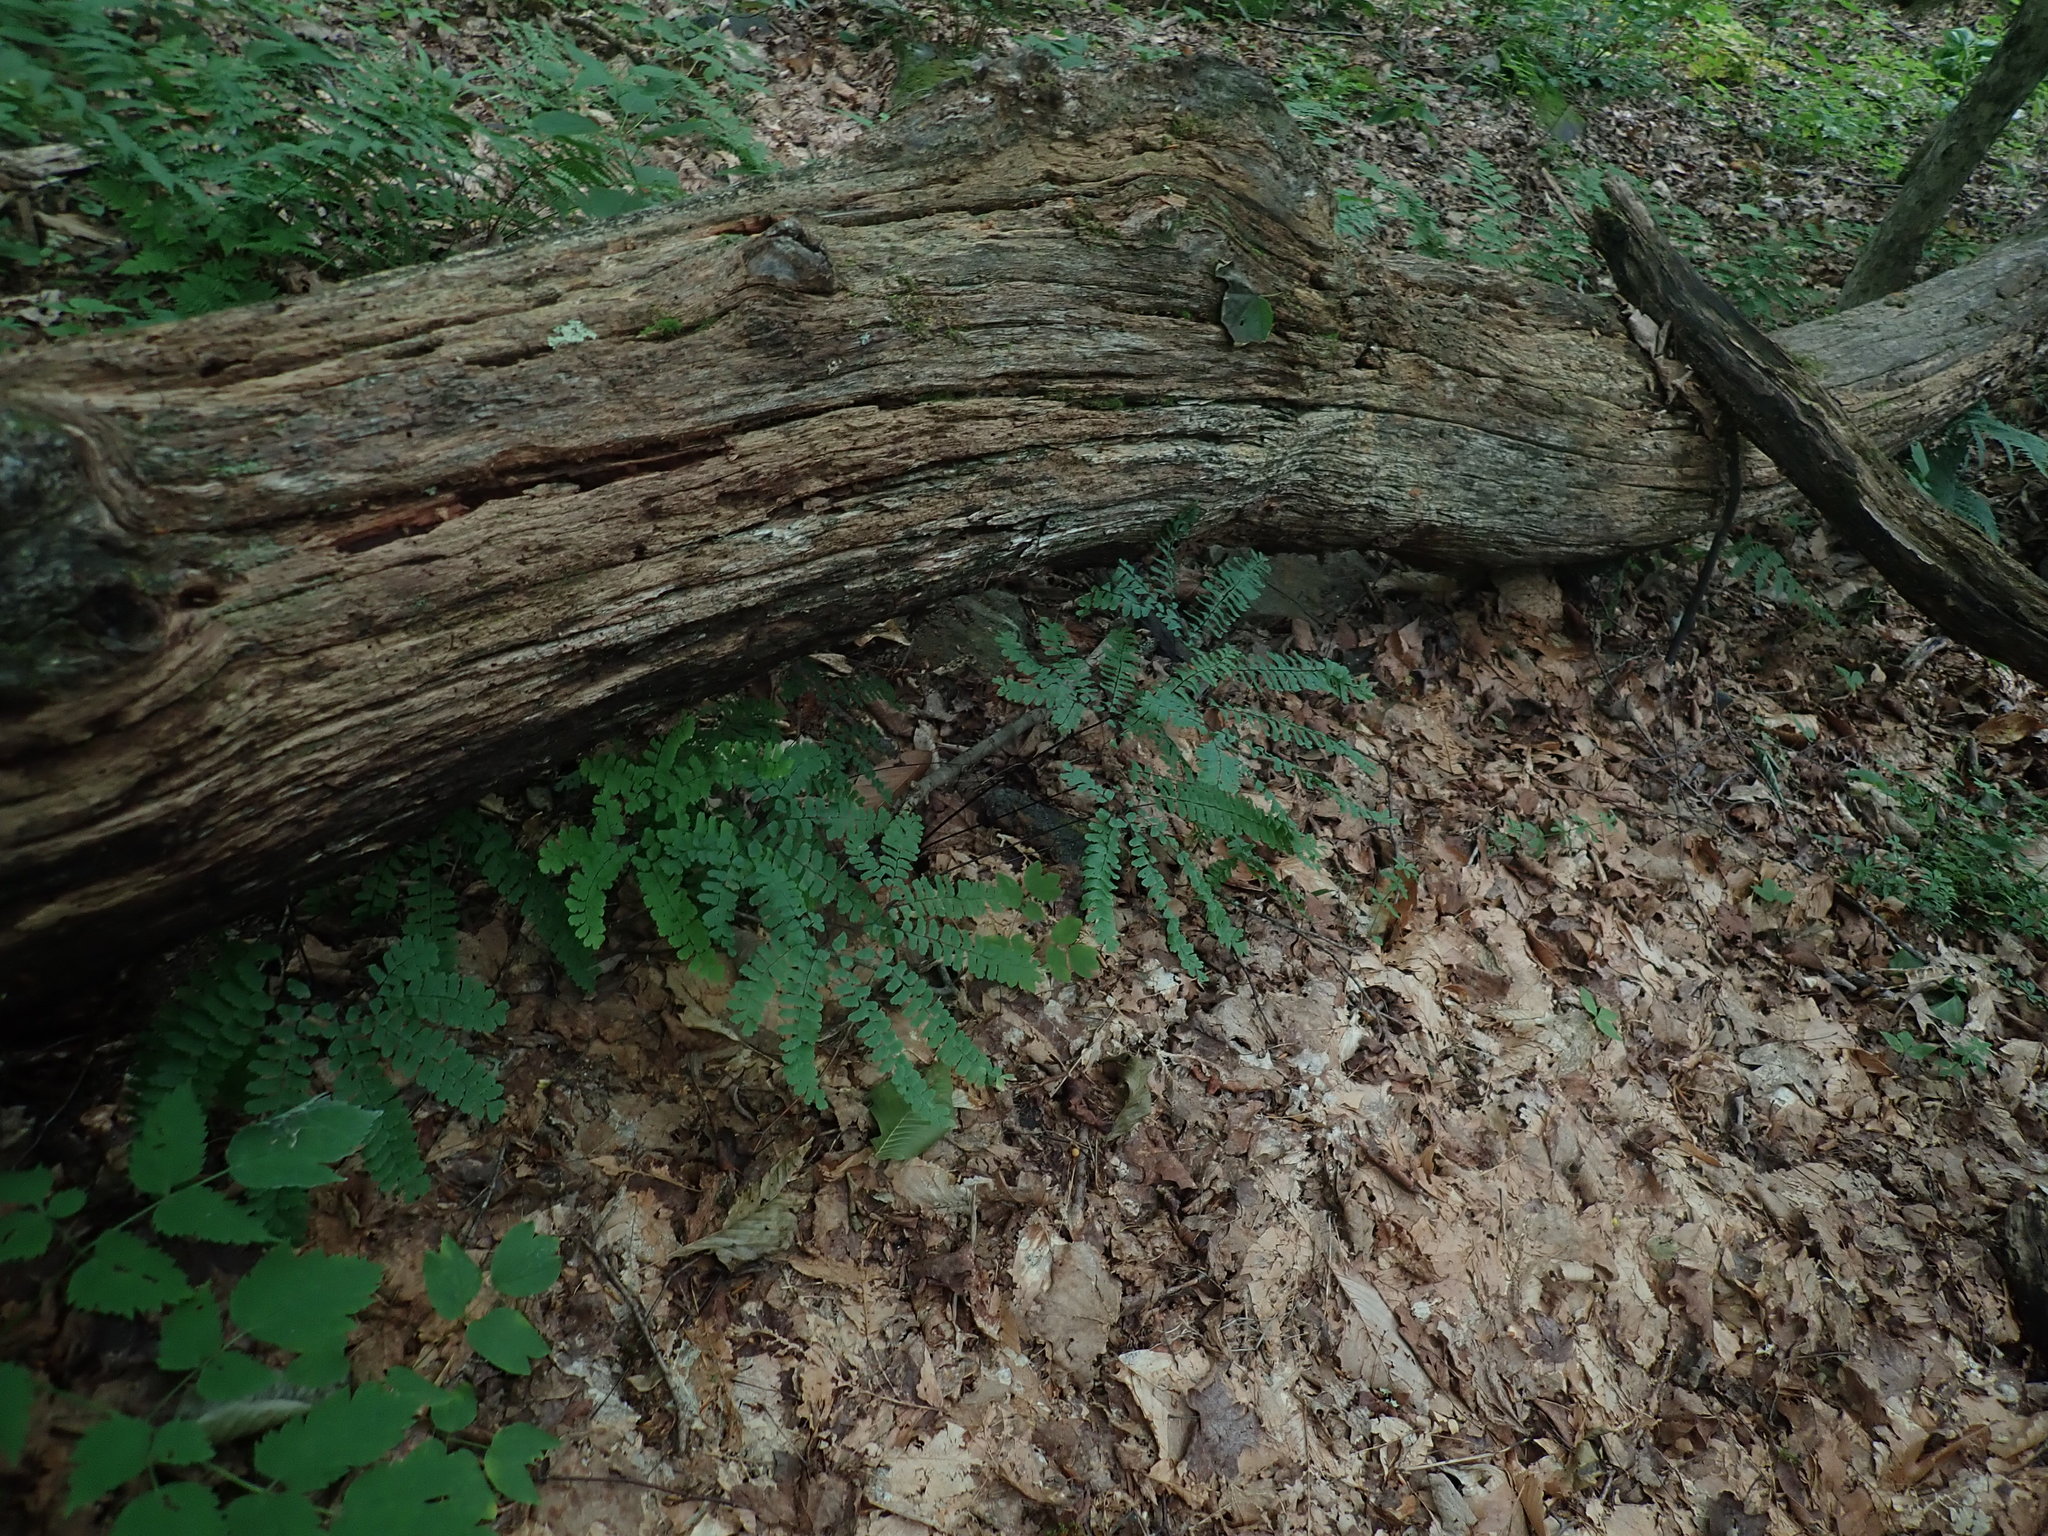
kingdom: Plantae
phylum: Tracheophyta
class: Polypodiopsida
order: Polypodiales
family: Pteridaceae
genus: Adiantum
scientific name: Adiantum pedatum
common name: Five-finger fern
